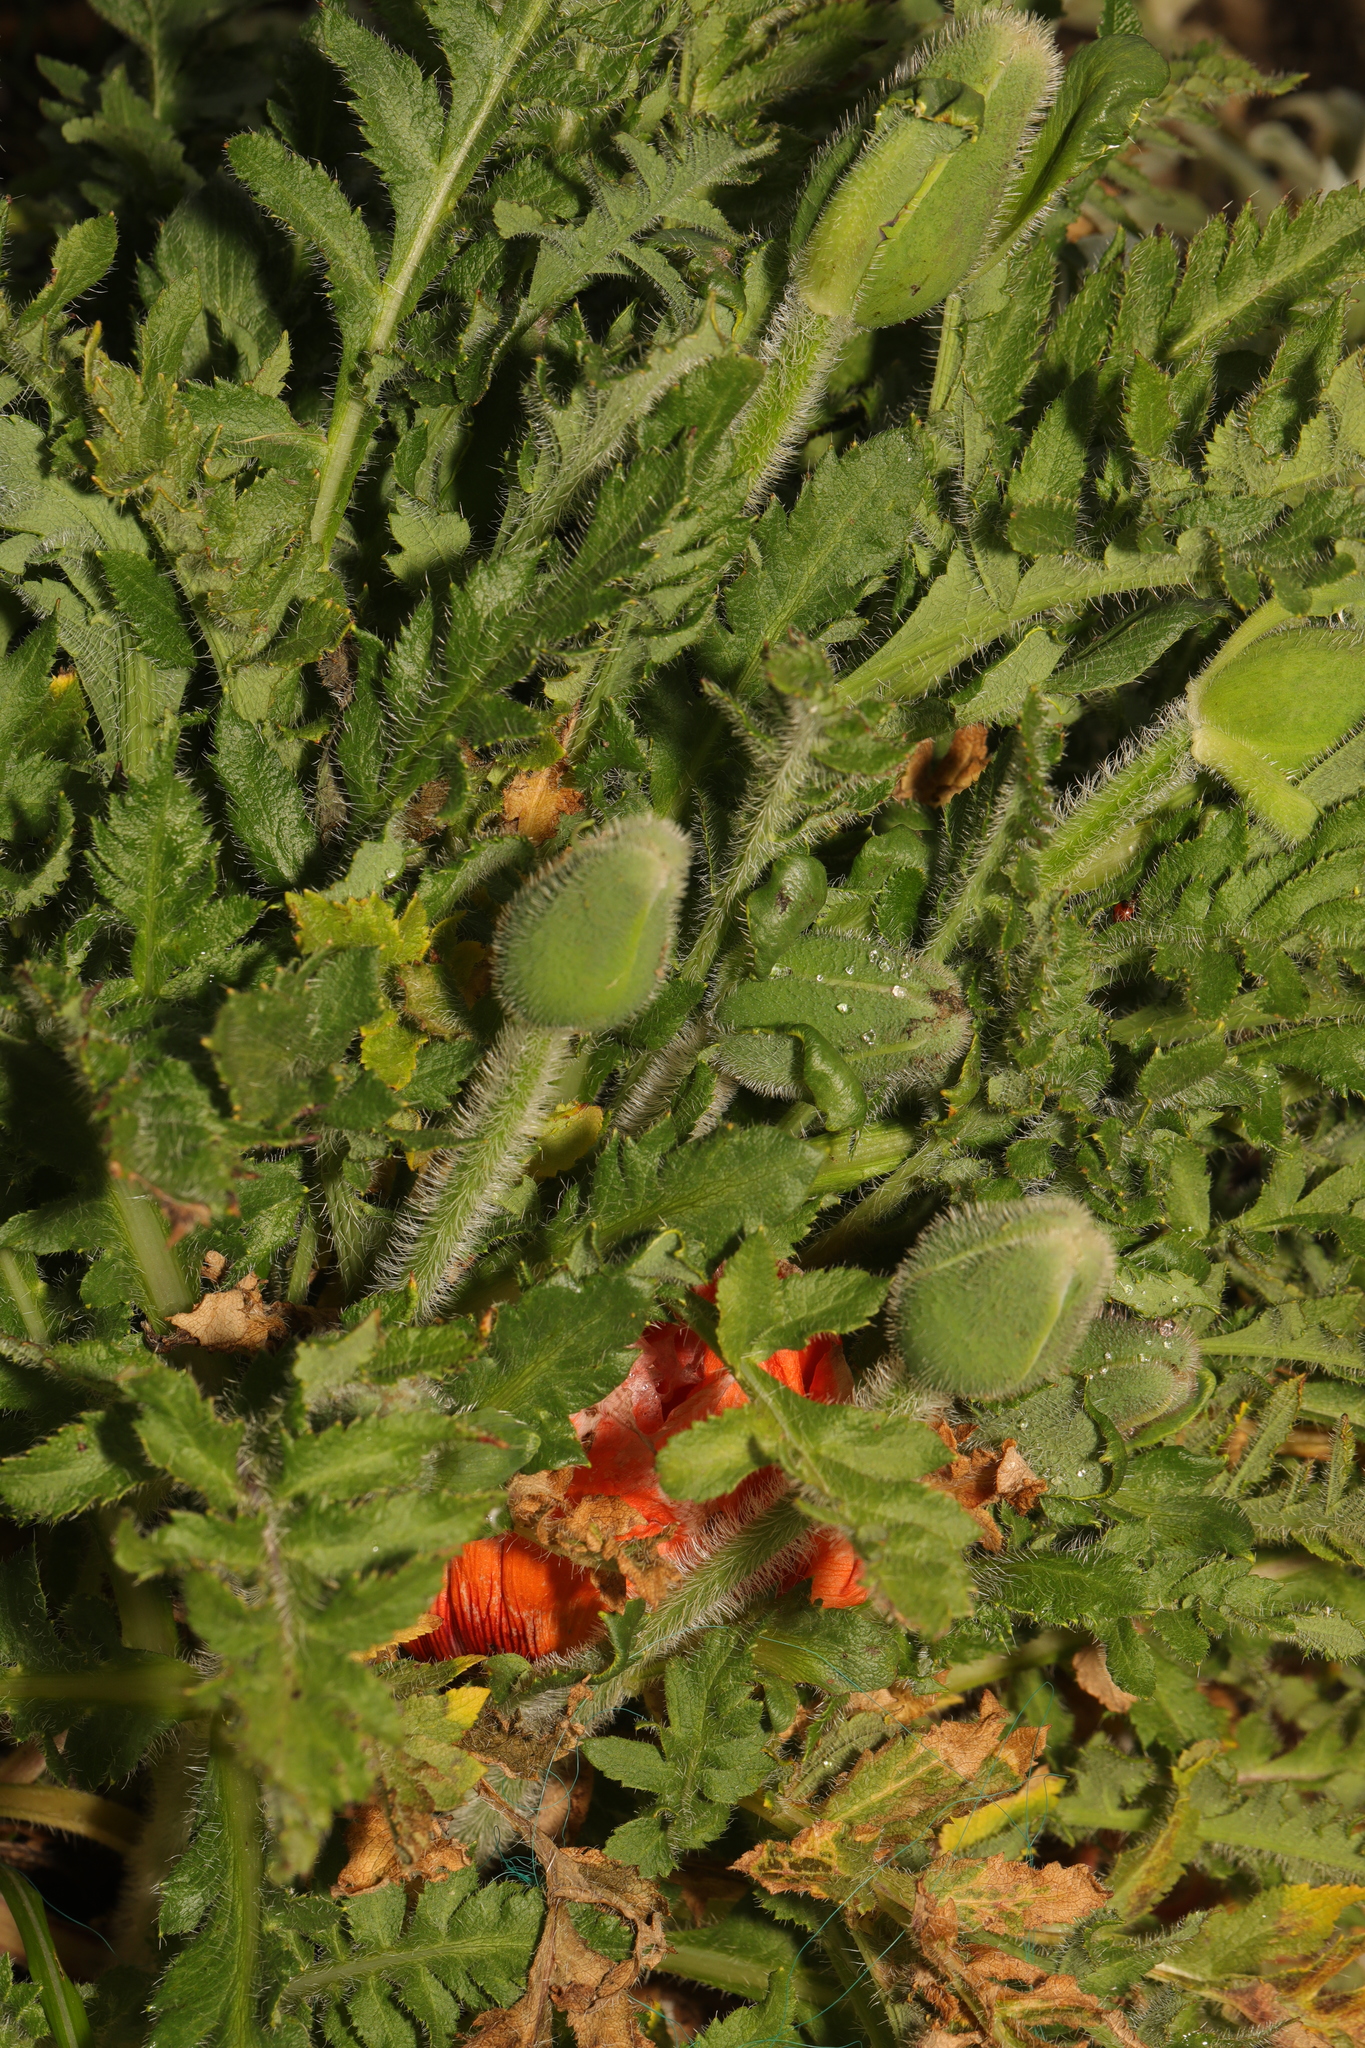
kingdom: Plantae
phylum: Tracheophyta
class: Magnoliopsida
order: Ranunculales
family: Papaveraceae
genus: Papaver
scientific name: Papaver orientale
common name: Oriental poppy
